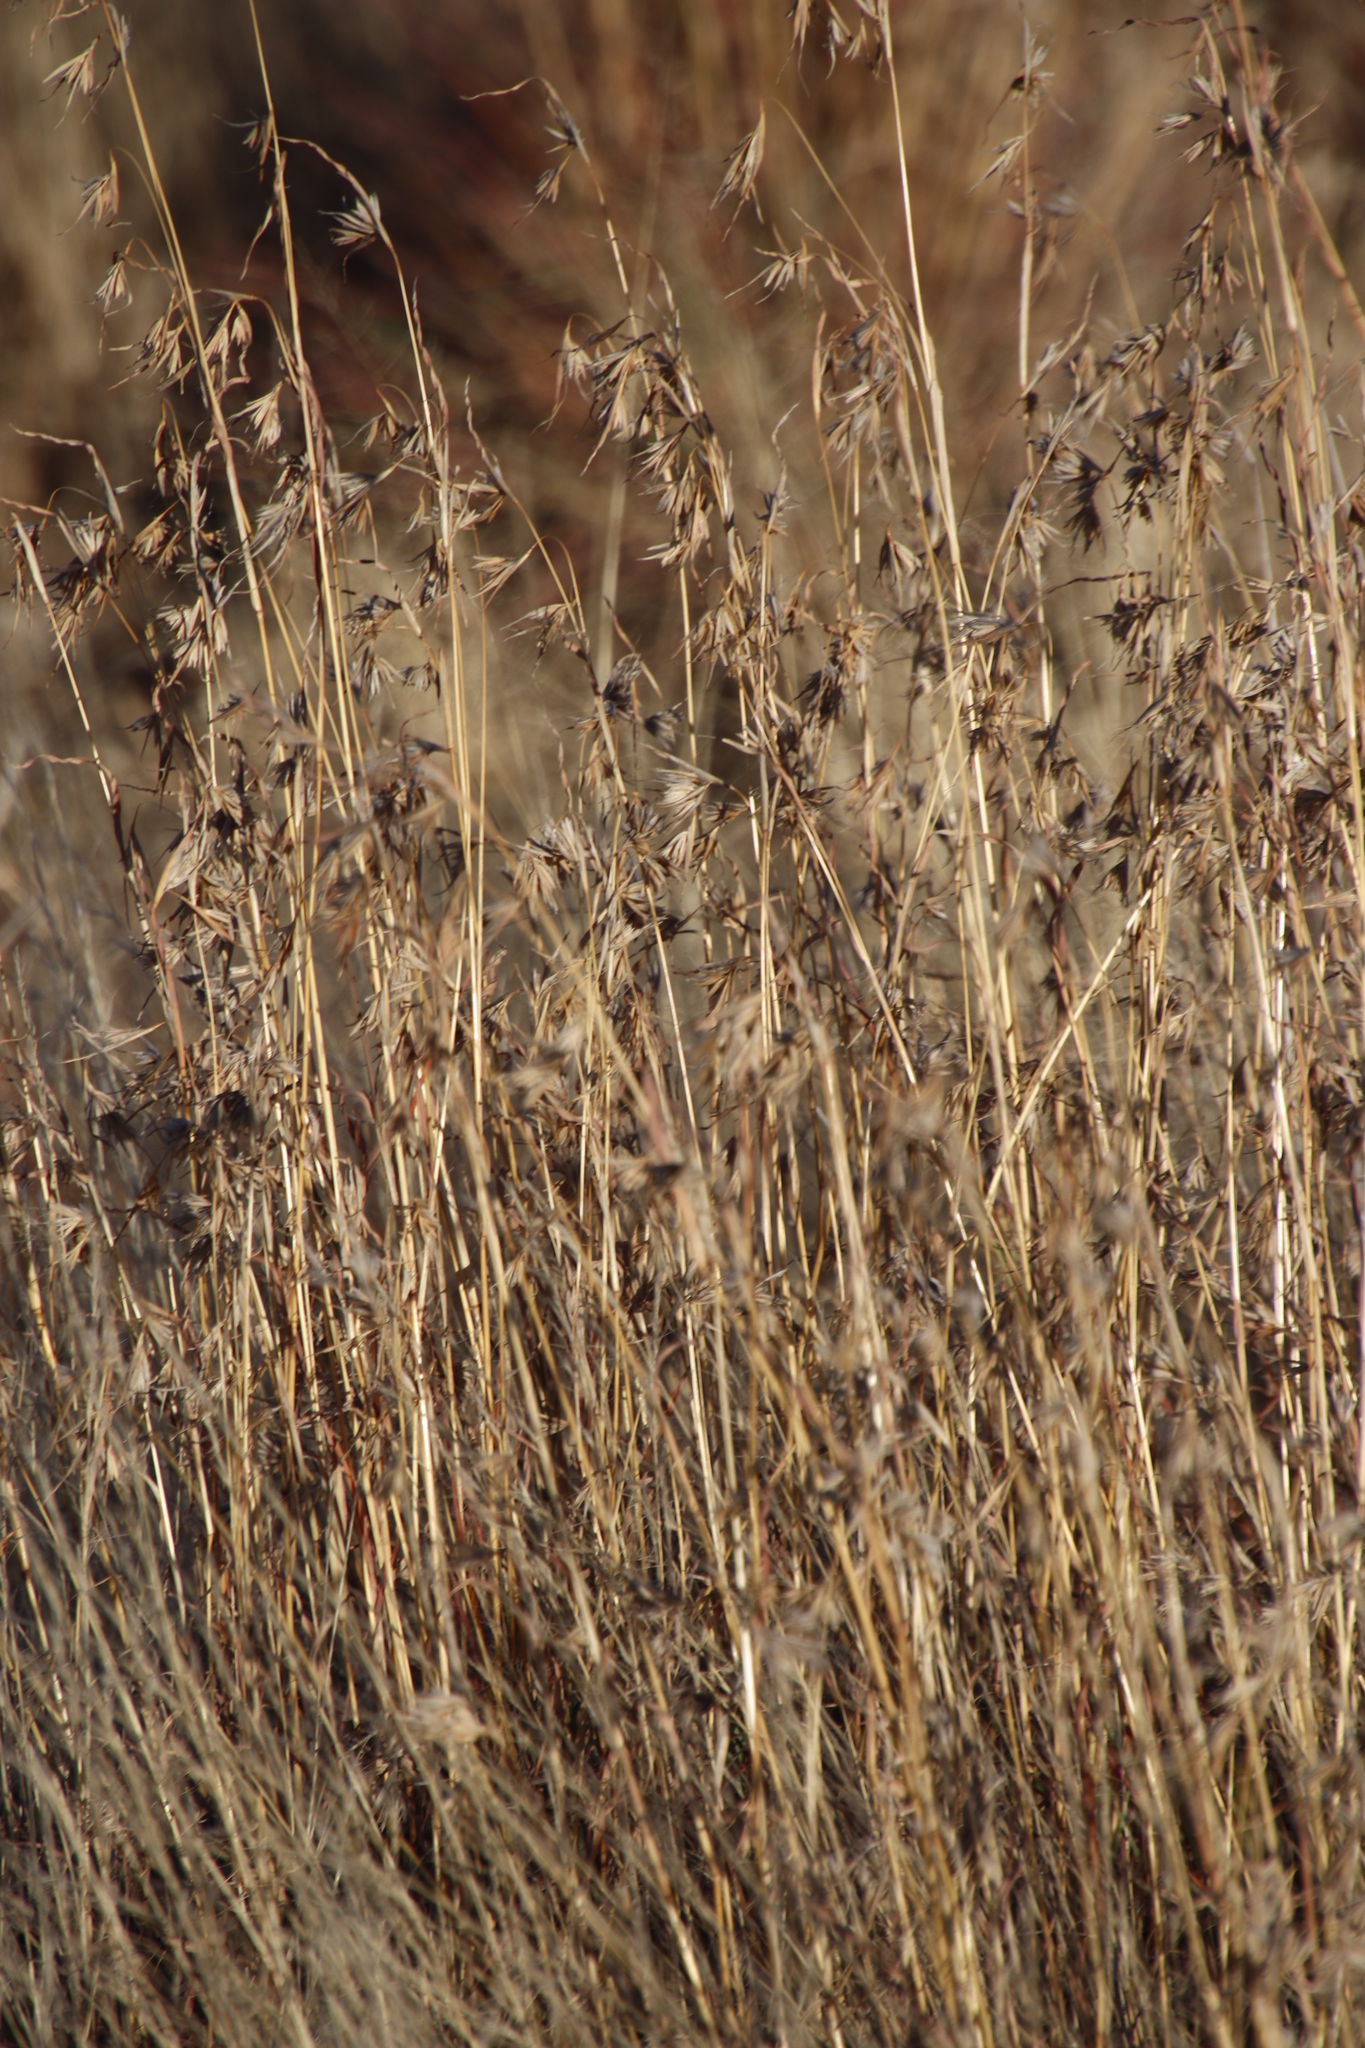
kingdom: Plantae
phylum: Tracheophyta
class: Liliopsida
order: Poales
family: Poaceae
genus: Themeda
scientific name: Themeda triandra
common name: Kangaroo grass
